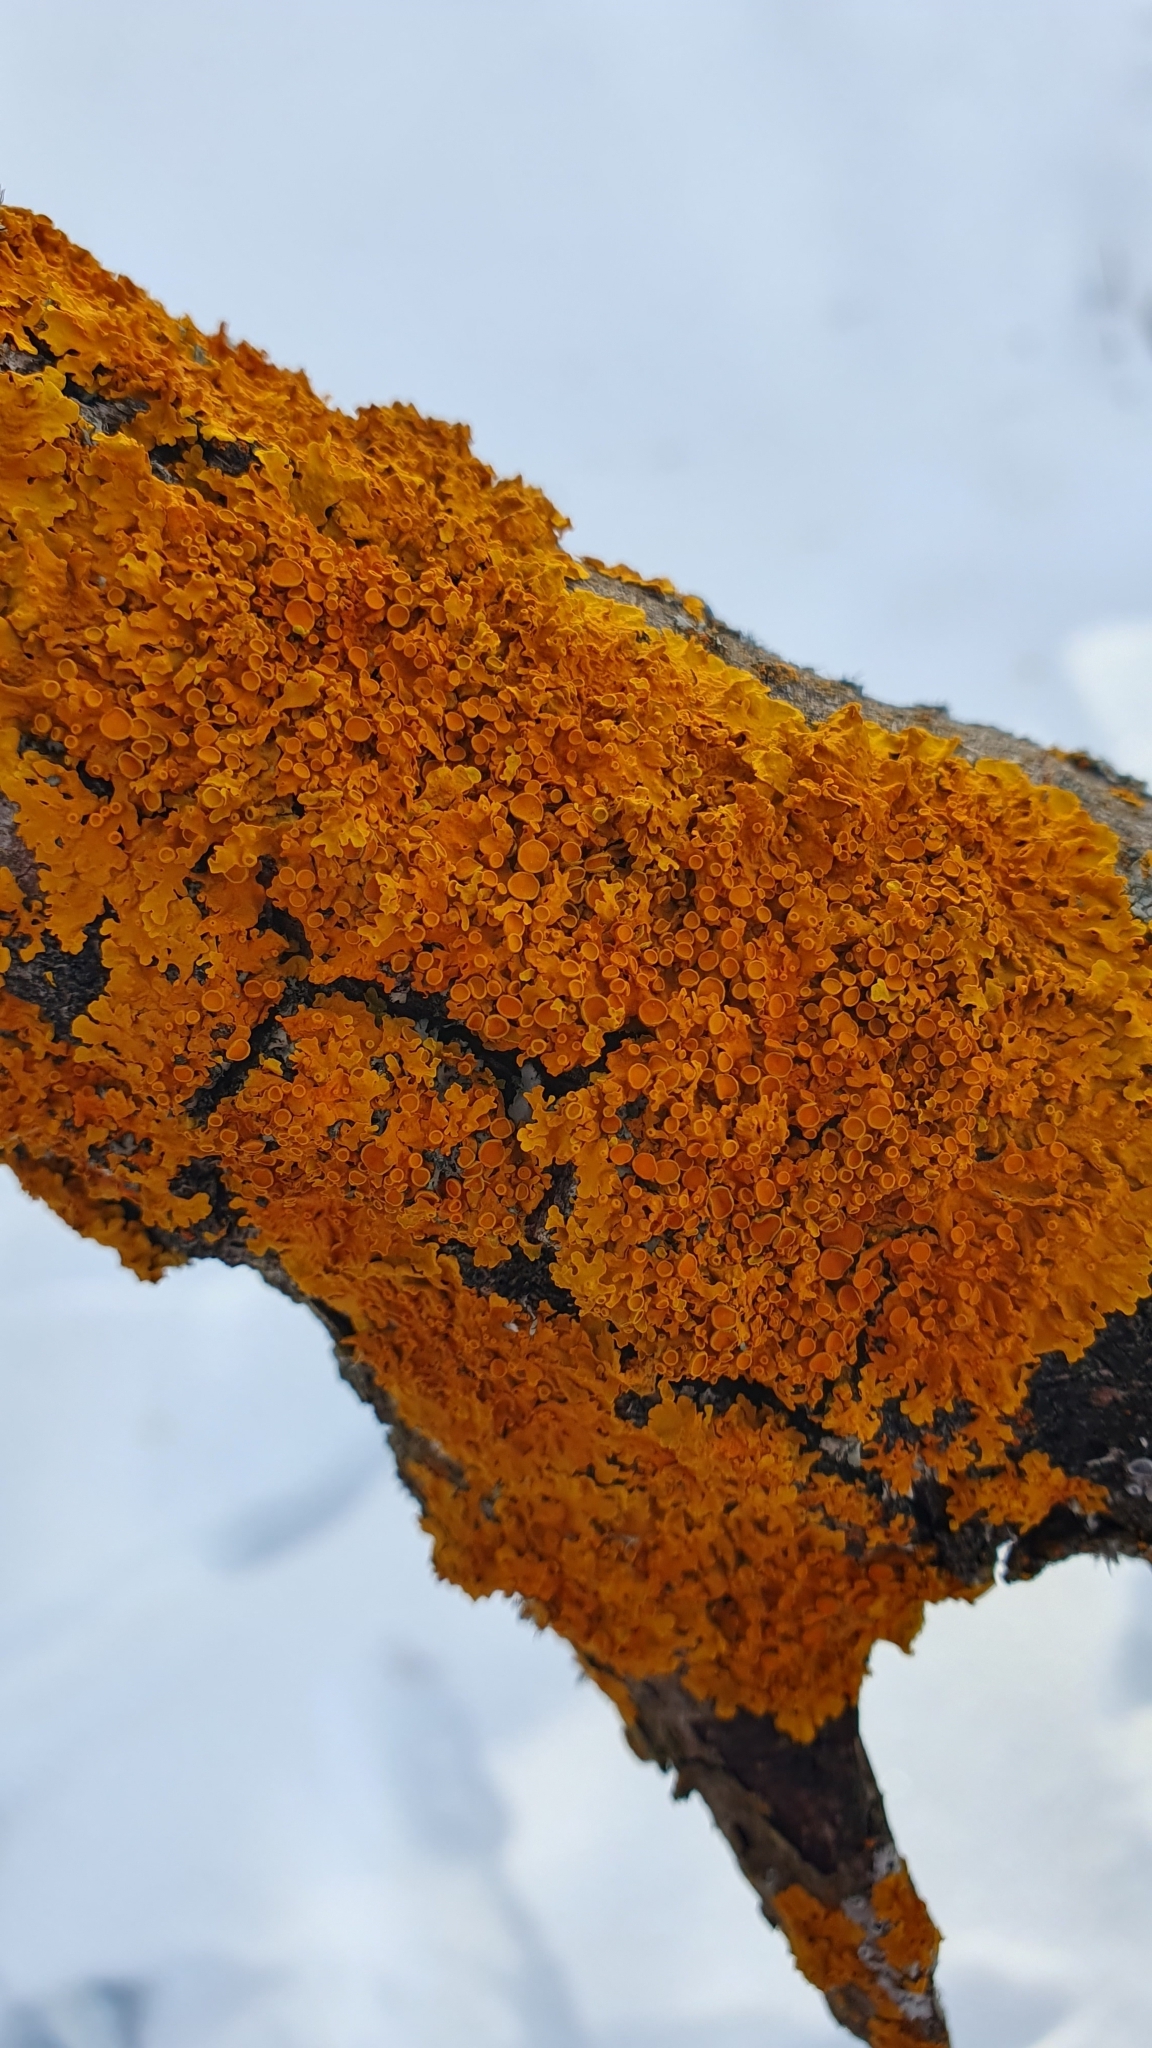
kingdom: Fungi
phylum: Ascomycota
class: Lecanoromycetes
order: Teloschistales
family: Teloschistaceae
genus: Xanthoria
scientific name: Xanthoria parietina
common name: Common orange lichen
